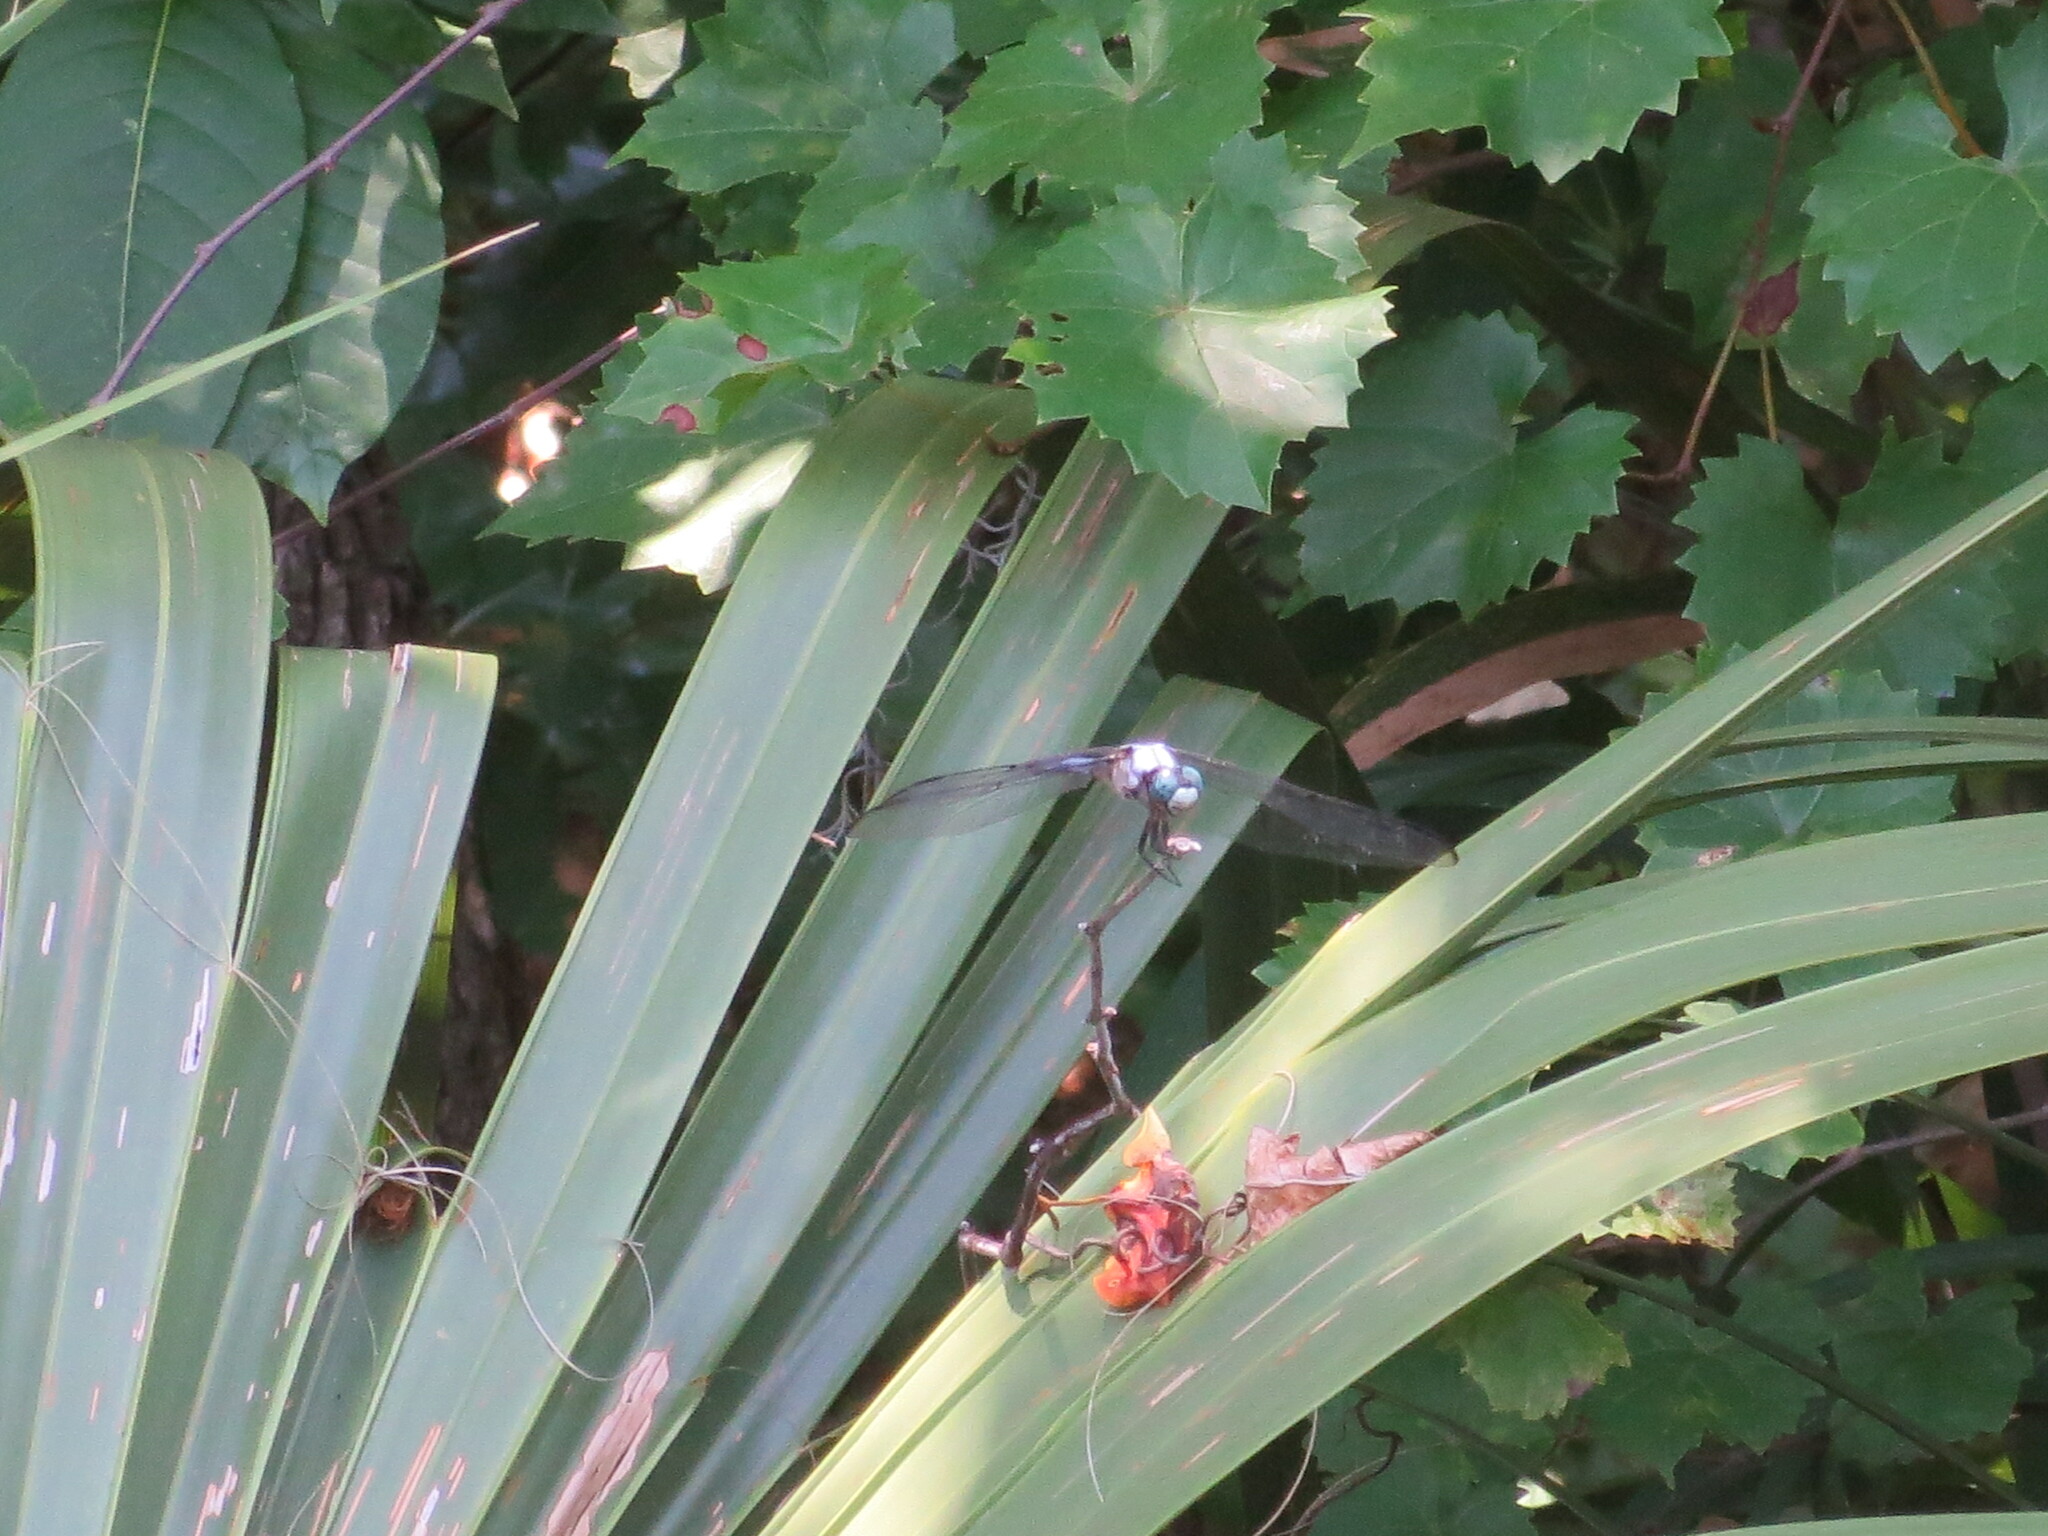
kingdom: Animalia
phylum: Arthropoda
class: Insecta
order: Odonata
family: Libellulidae
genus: Libellula
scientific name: Libellula vibrans
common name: Great blue skimmer
